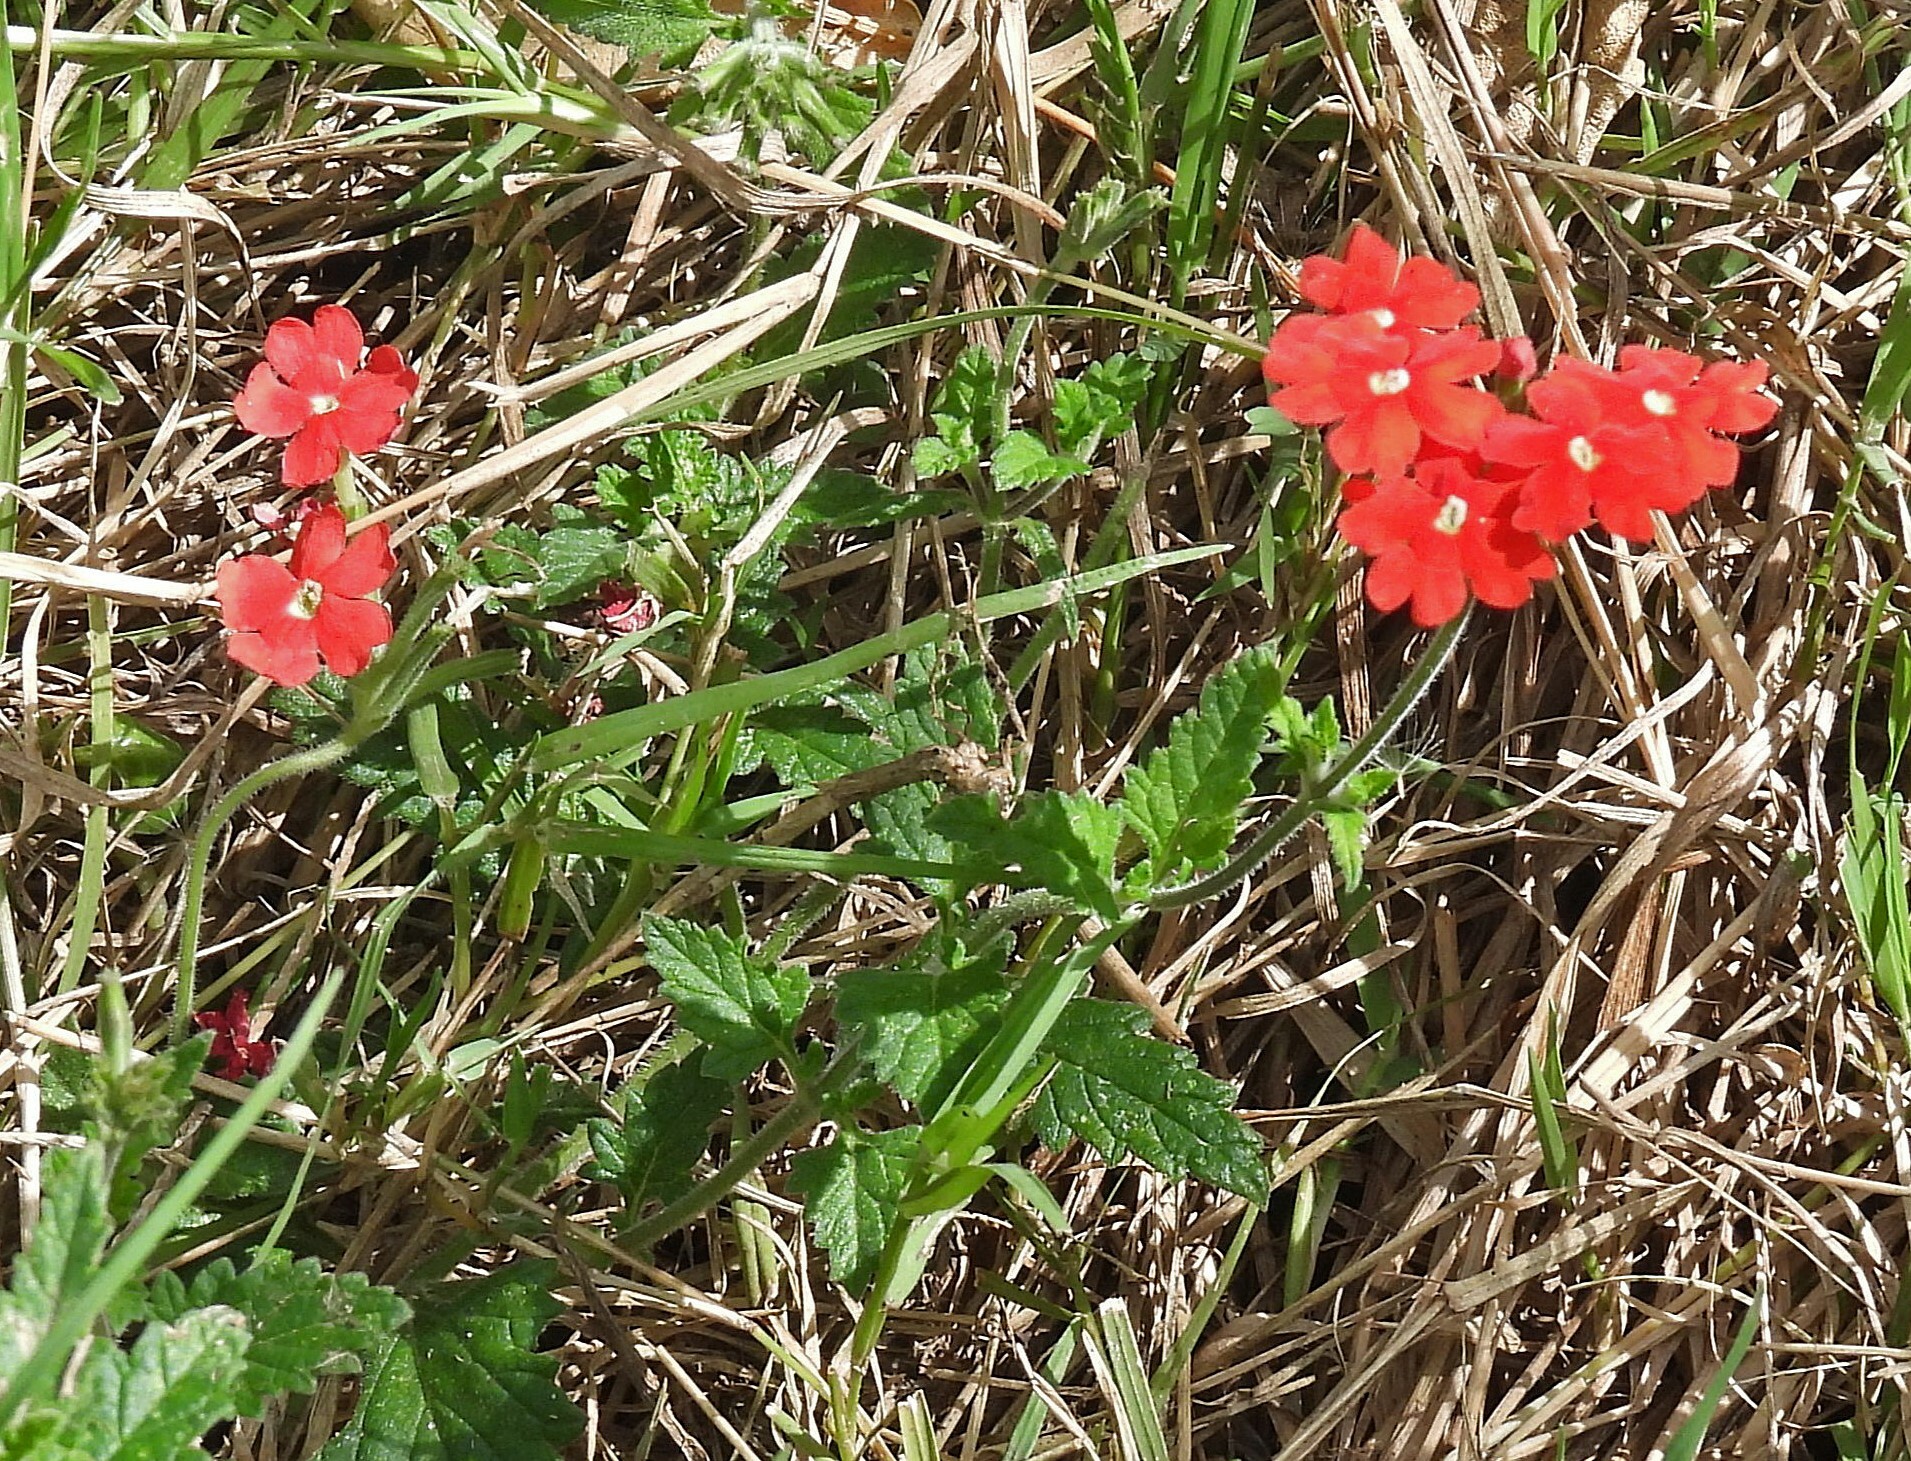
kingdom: Plantae
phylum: Tracheophyta
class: Magnoliopsida
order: Lamiales
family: Verbenaceae
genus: Verbena
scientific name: Verbena tweedieana
